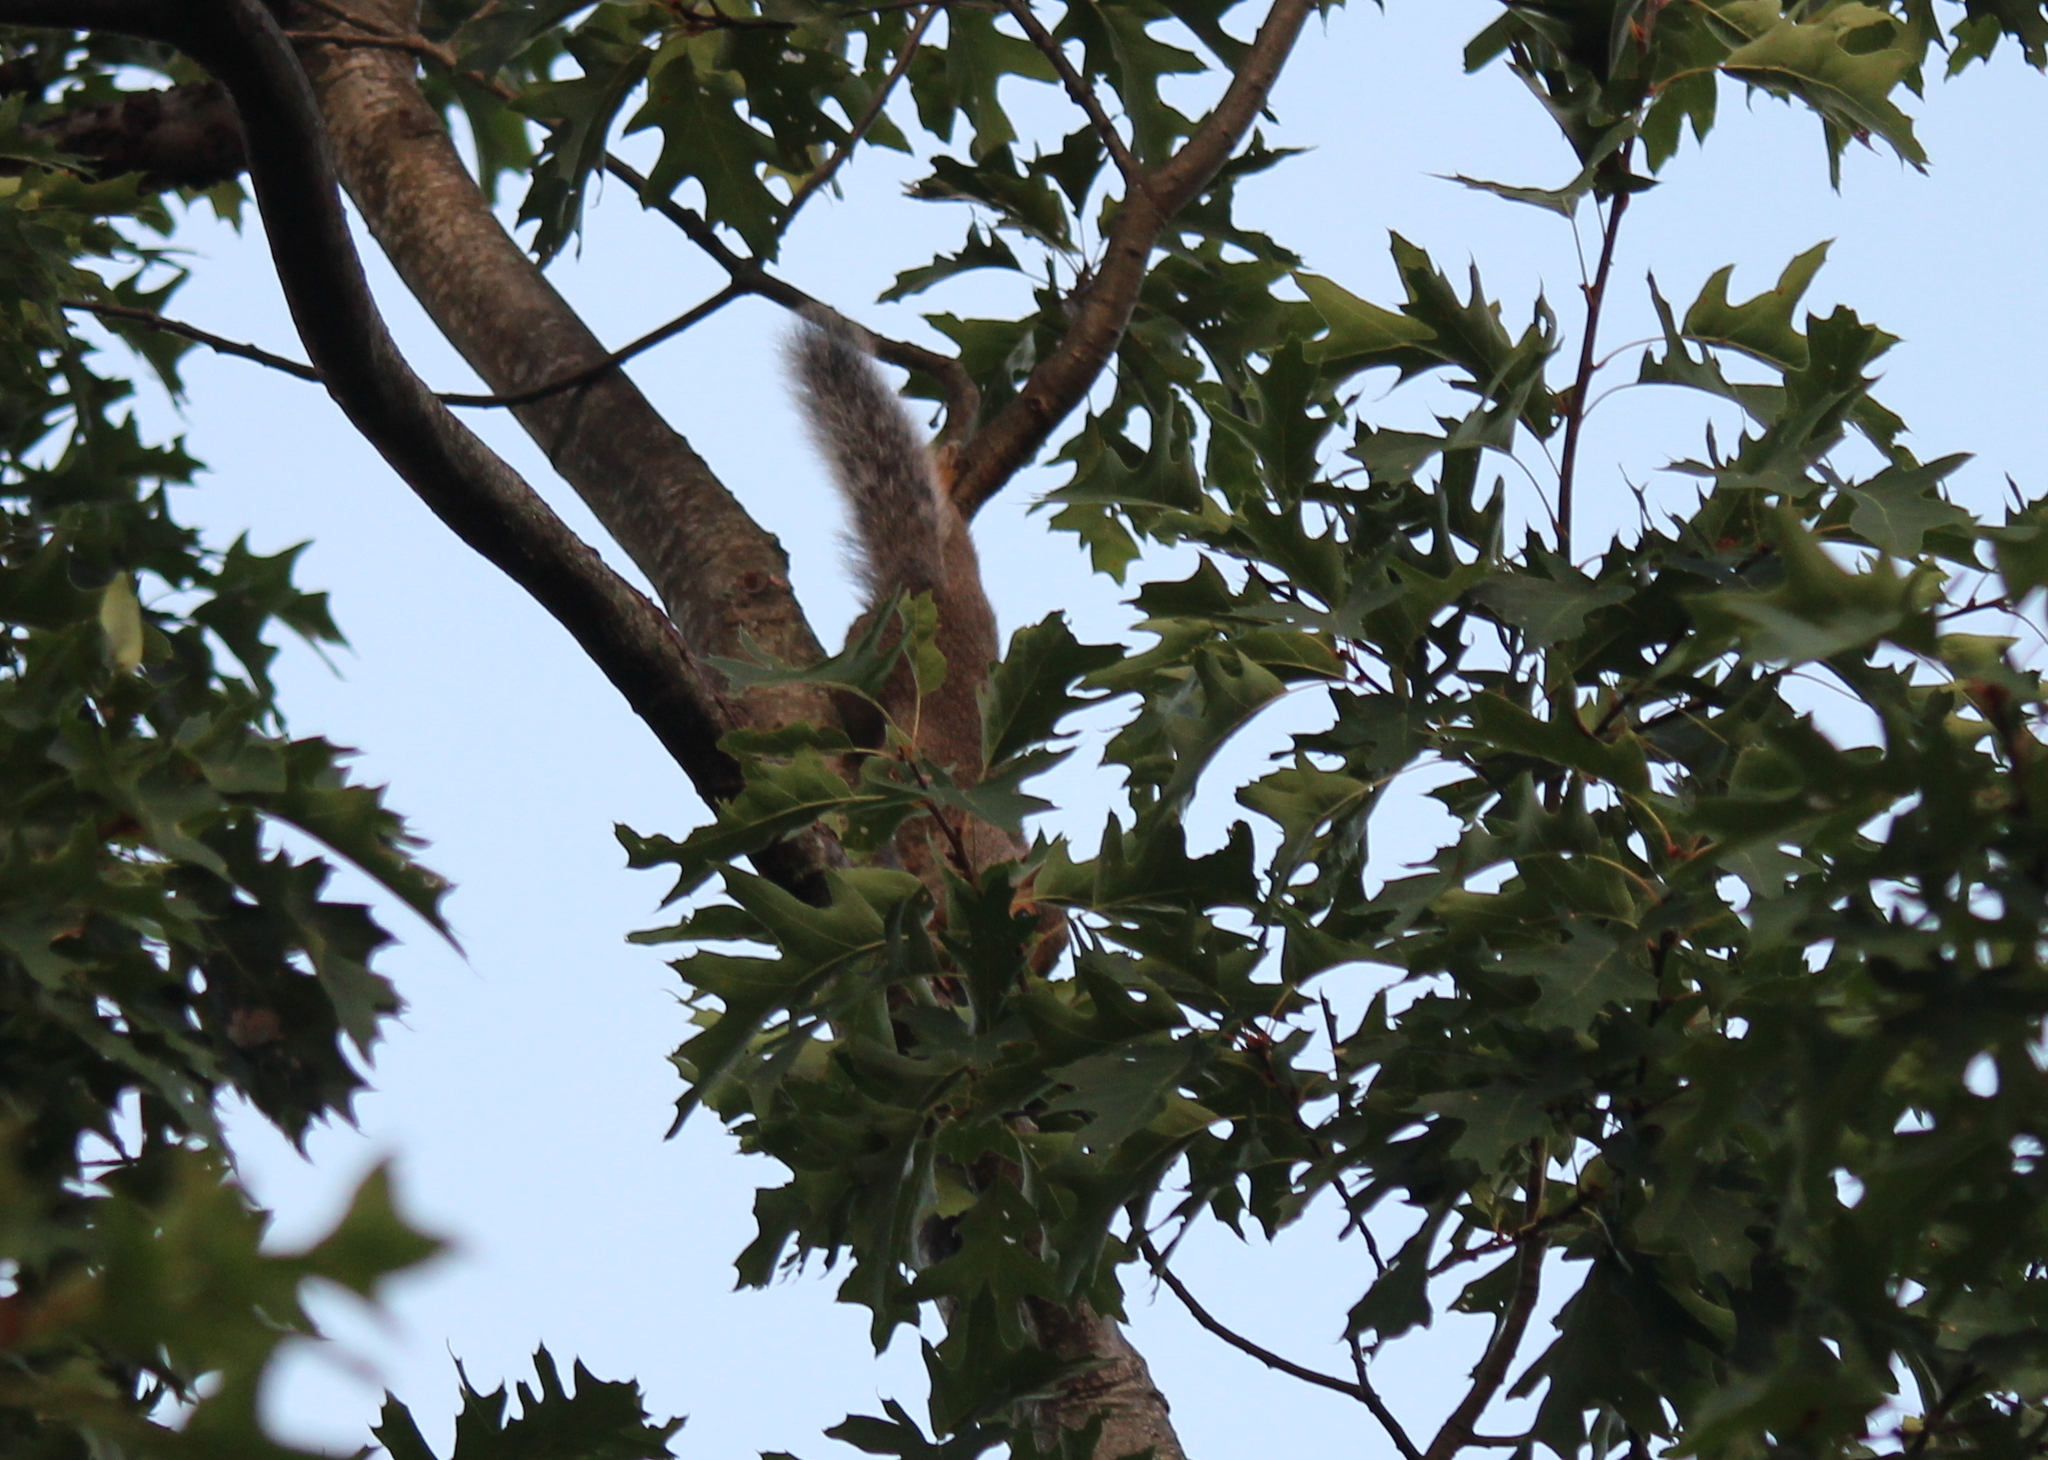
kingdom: Animalia
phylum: Chordata
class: Mammalia
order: Rodentia
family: Sciuridae
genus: Sciurus
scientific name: Sciurus carolinensis
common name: Eastern gray squirrel
